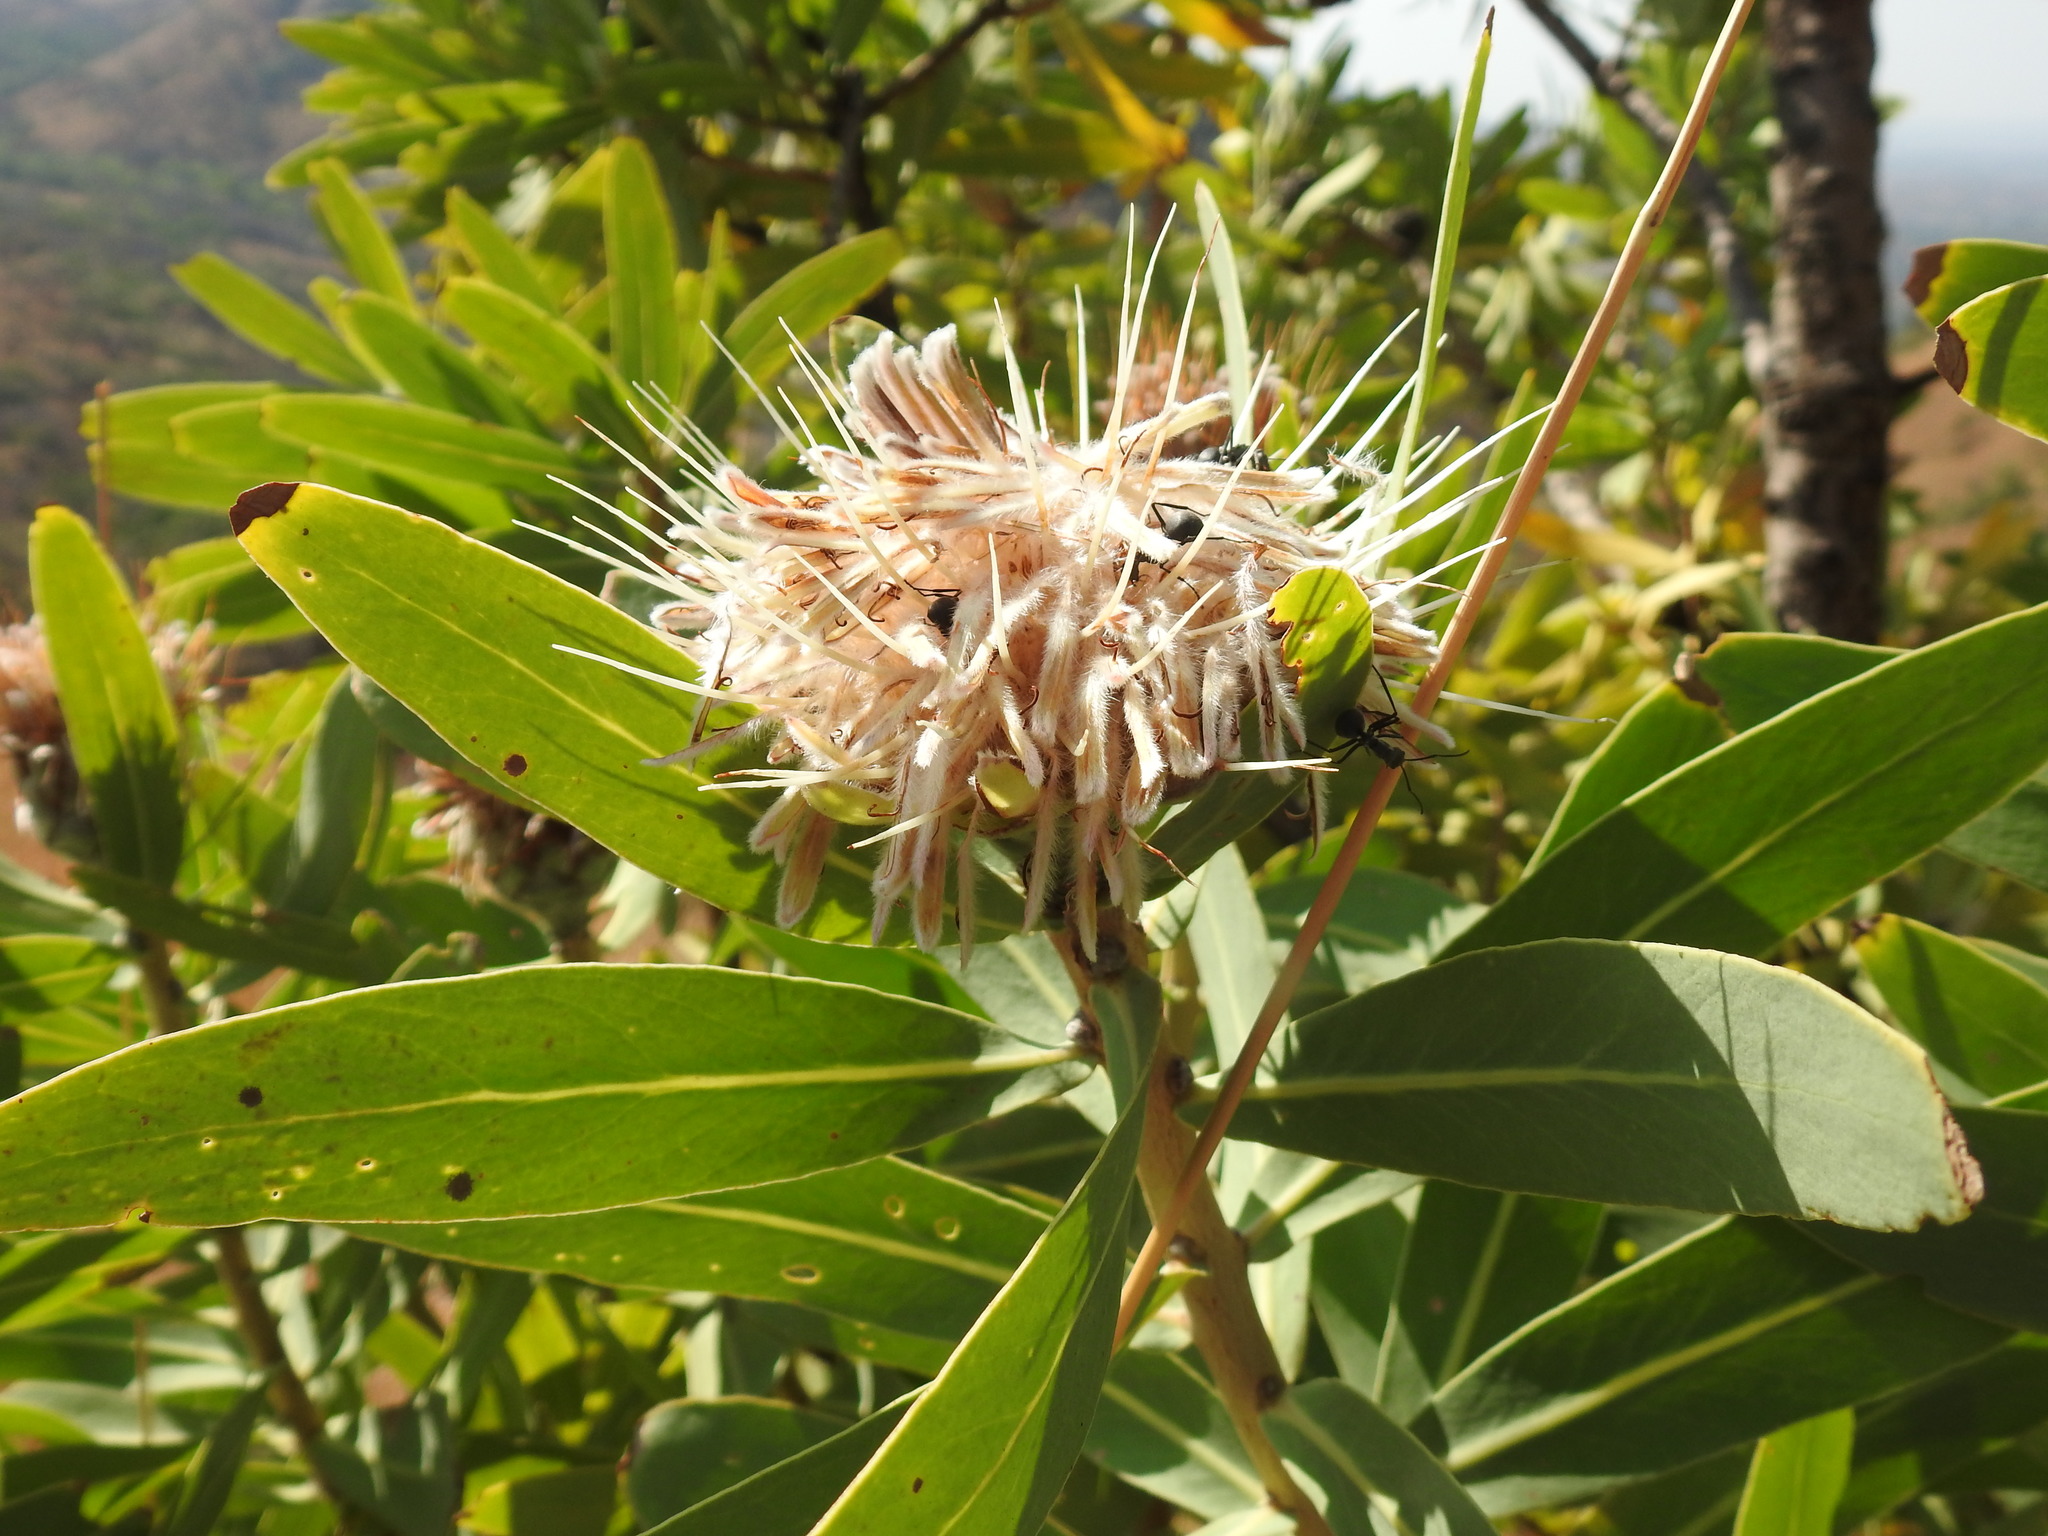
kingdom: Plantae
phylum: Tracheophyta
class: Magnoliopsida
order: Proteales
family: Proteaceae
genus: Protea
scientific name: Protea gaguedi
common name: African protea
